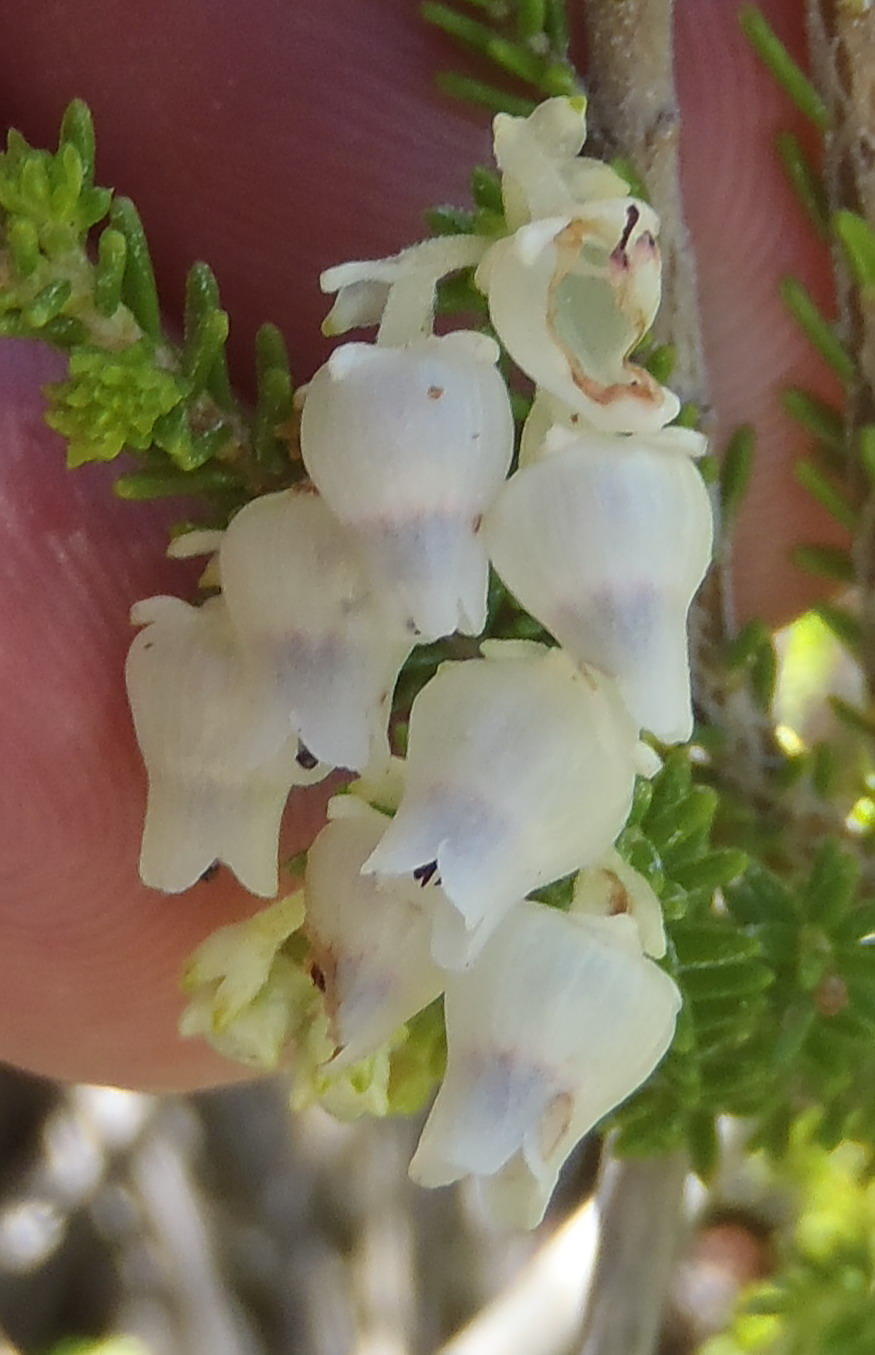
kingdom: Plantae
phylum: Tracheophyta
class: Magnoliopsida
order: Ericales
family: Ericaceae
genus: Erica
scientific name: Erica glomiflora
